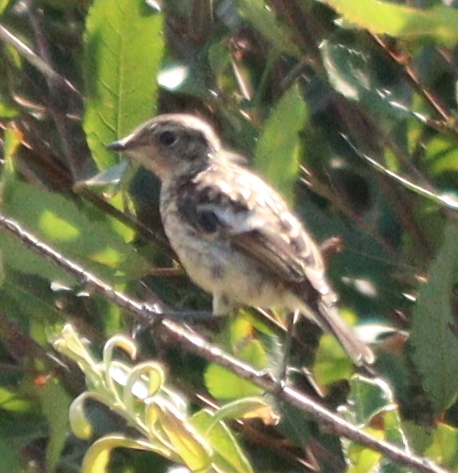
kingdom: Animalia
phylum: Chordata
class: Aves
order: Passeriformes
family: Muscicapidae
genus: Saxicola
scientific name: Saxicola rubicola
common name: European stonechat
